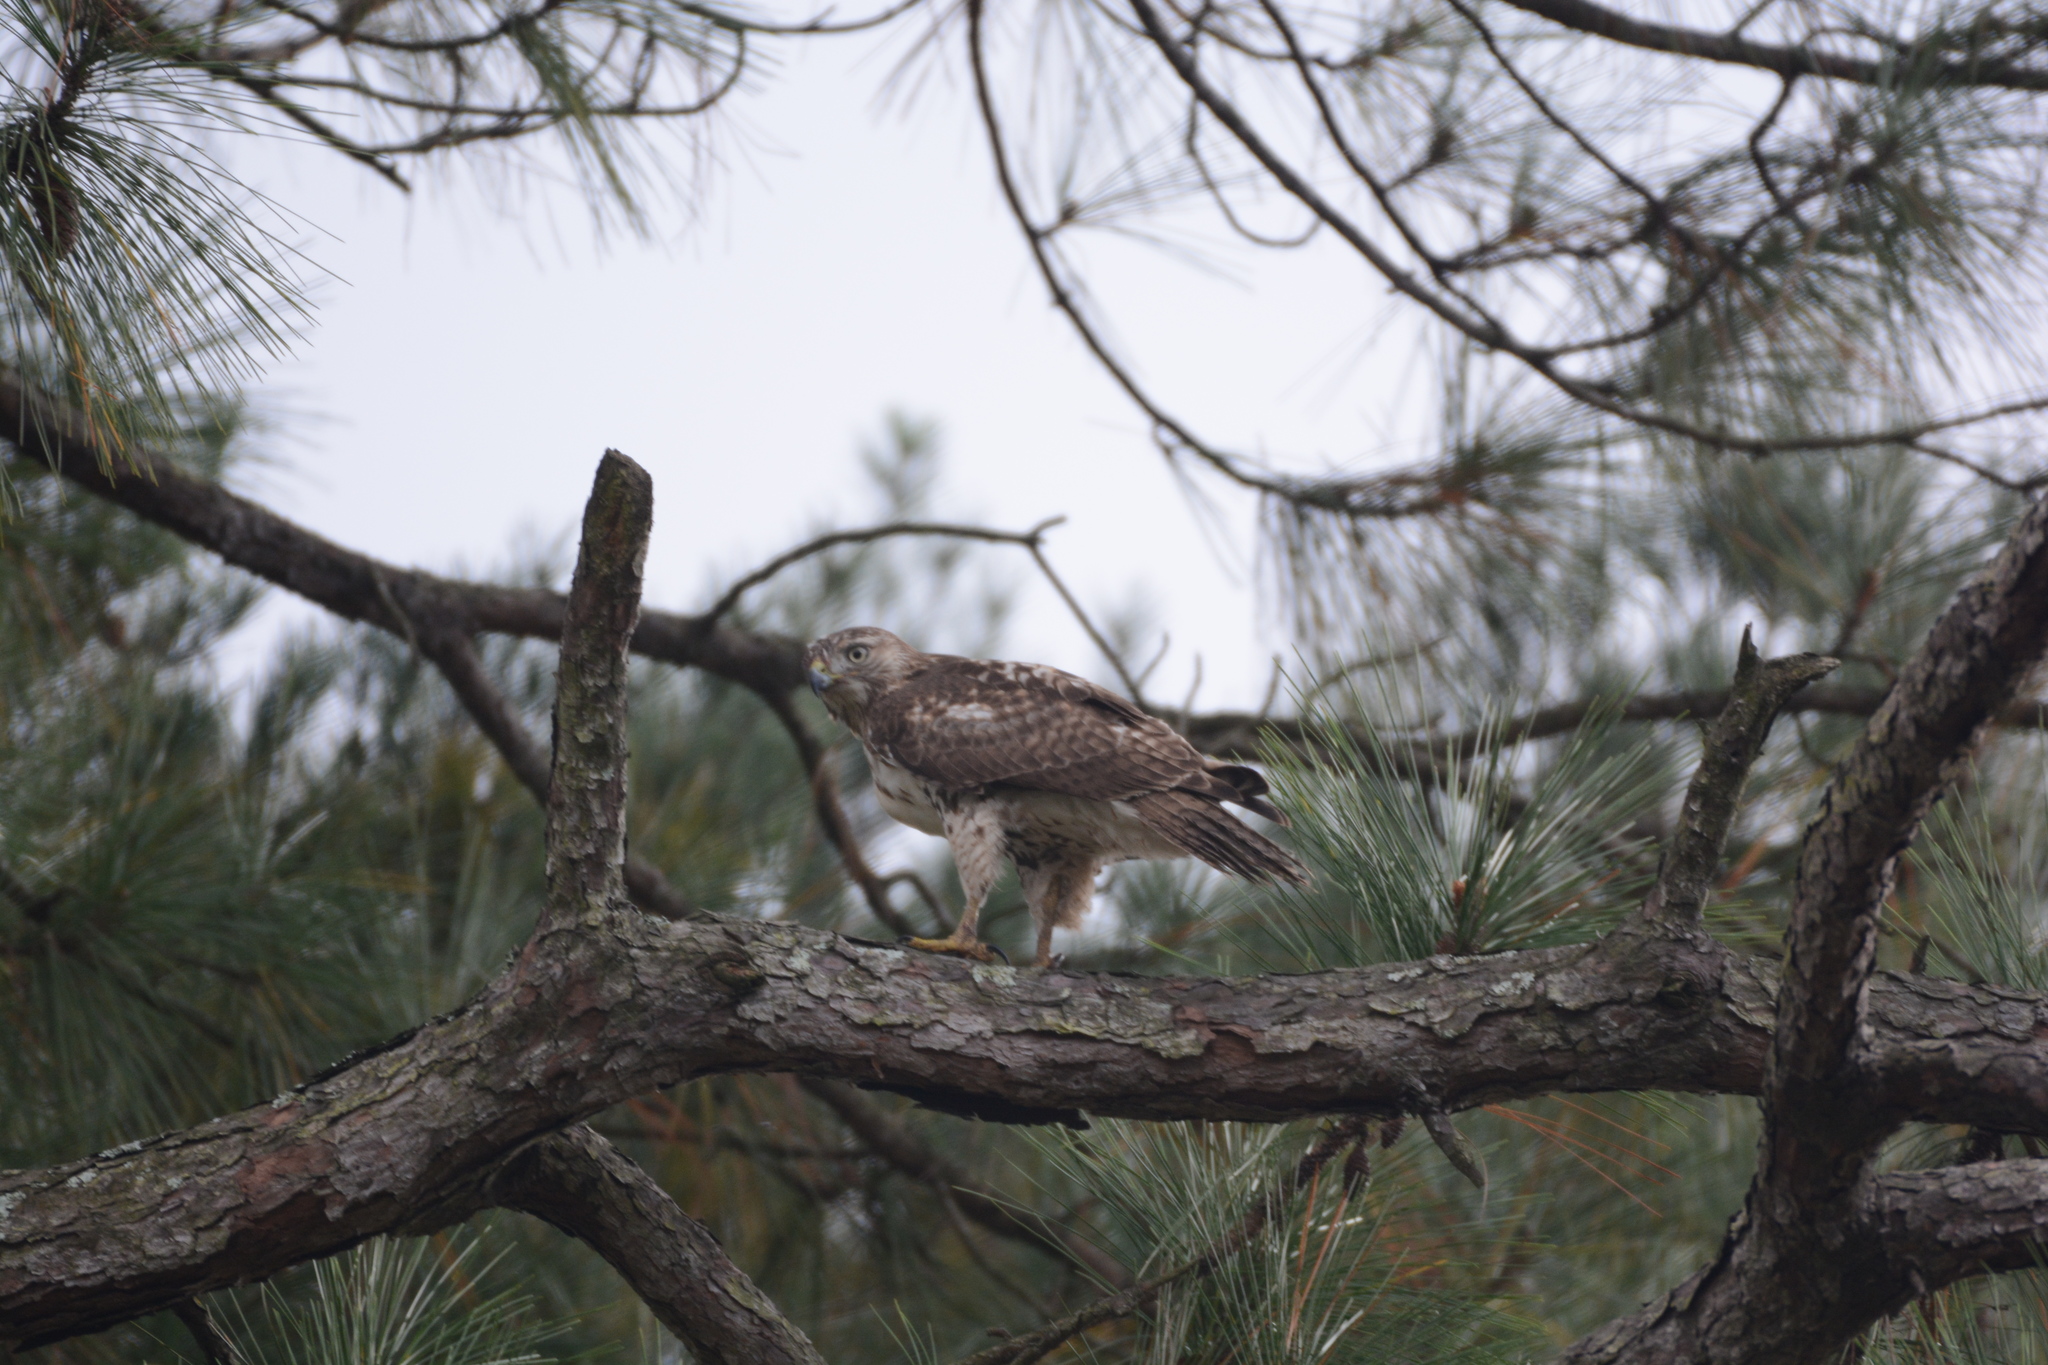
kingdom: Animalia
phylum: Chordata
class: Aves
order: Accipitriformes
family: Accipitridae
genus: Buteo
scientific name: Buteo jamaicensis
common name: Red-tailed hawk
